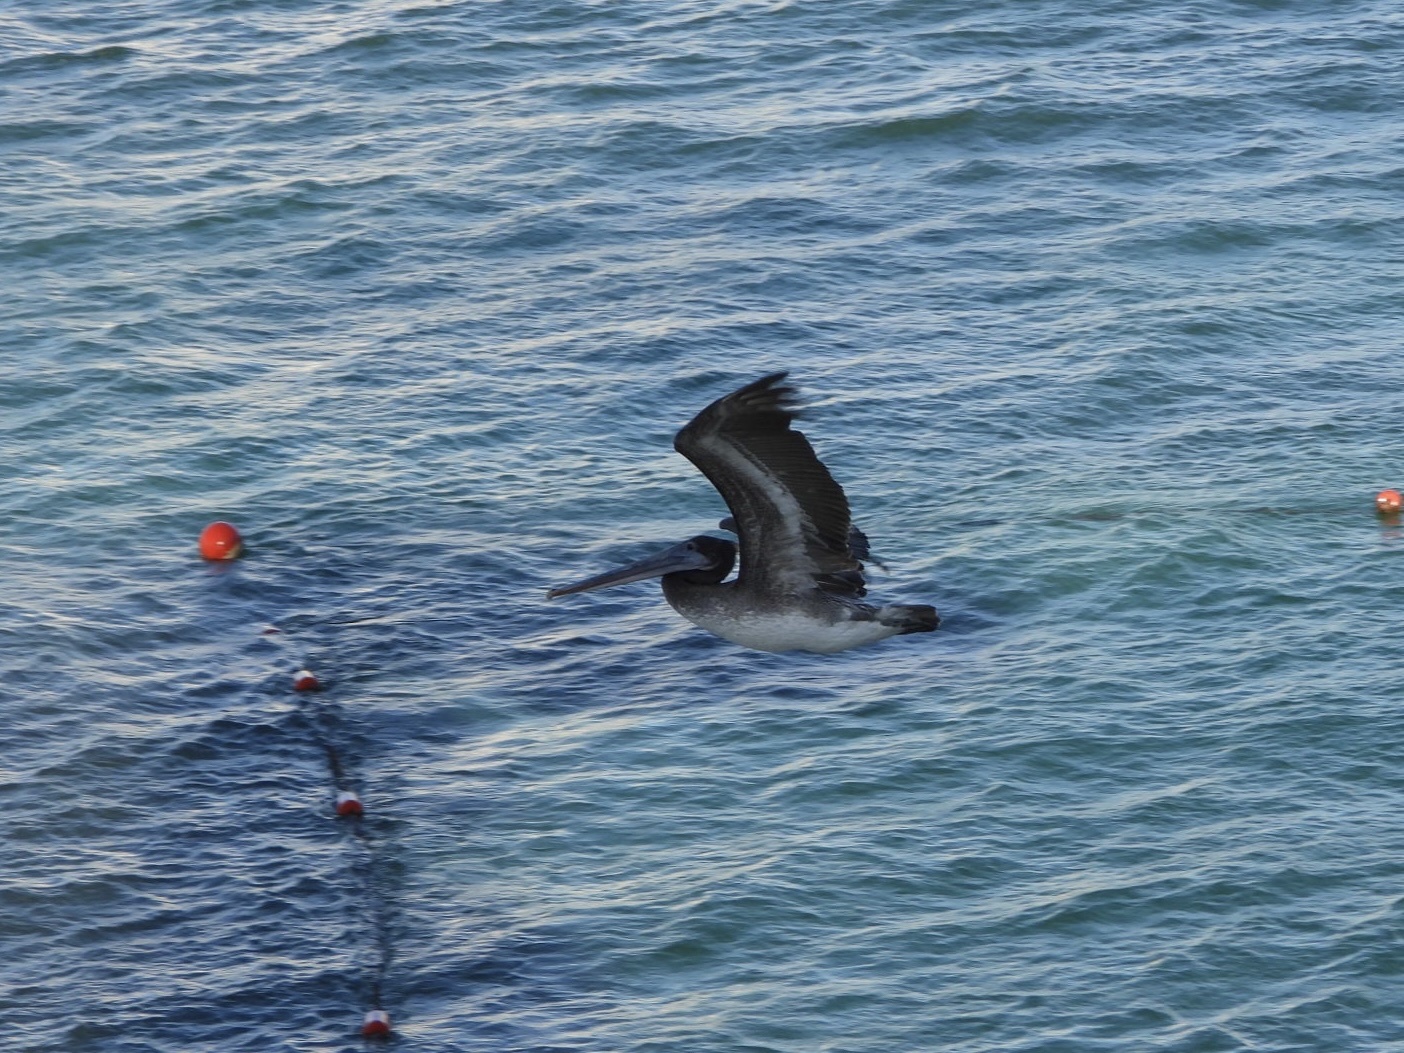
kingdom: Animalia
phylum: Chordata
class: Aves
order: Pelecaniformes
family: Pelecanidae
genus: Pelecanus
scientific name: Pelecanus occidentalis
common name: Brown pelican
